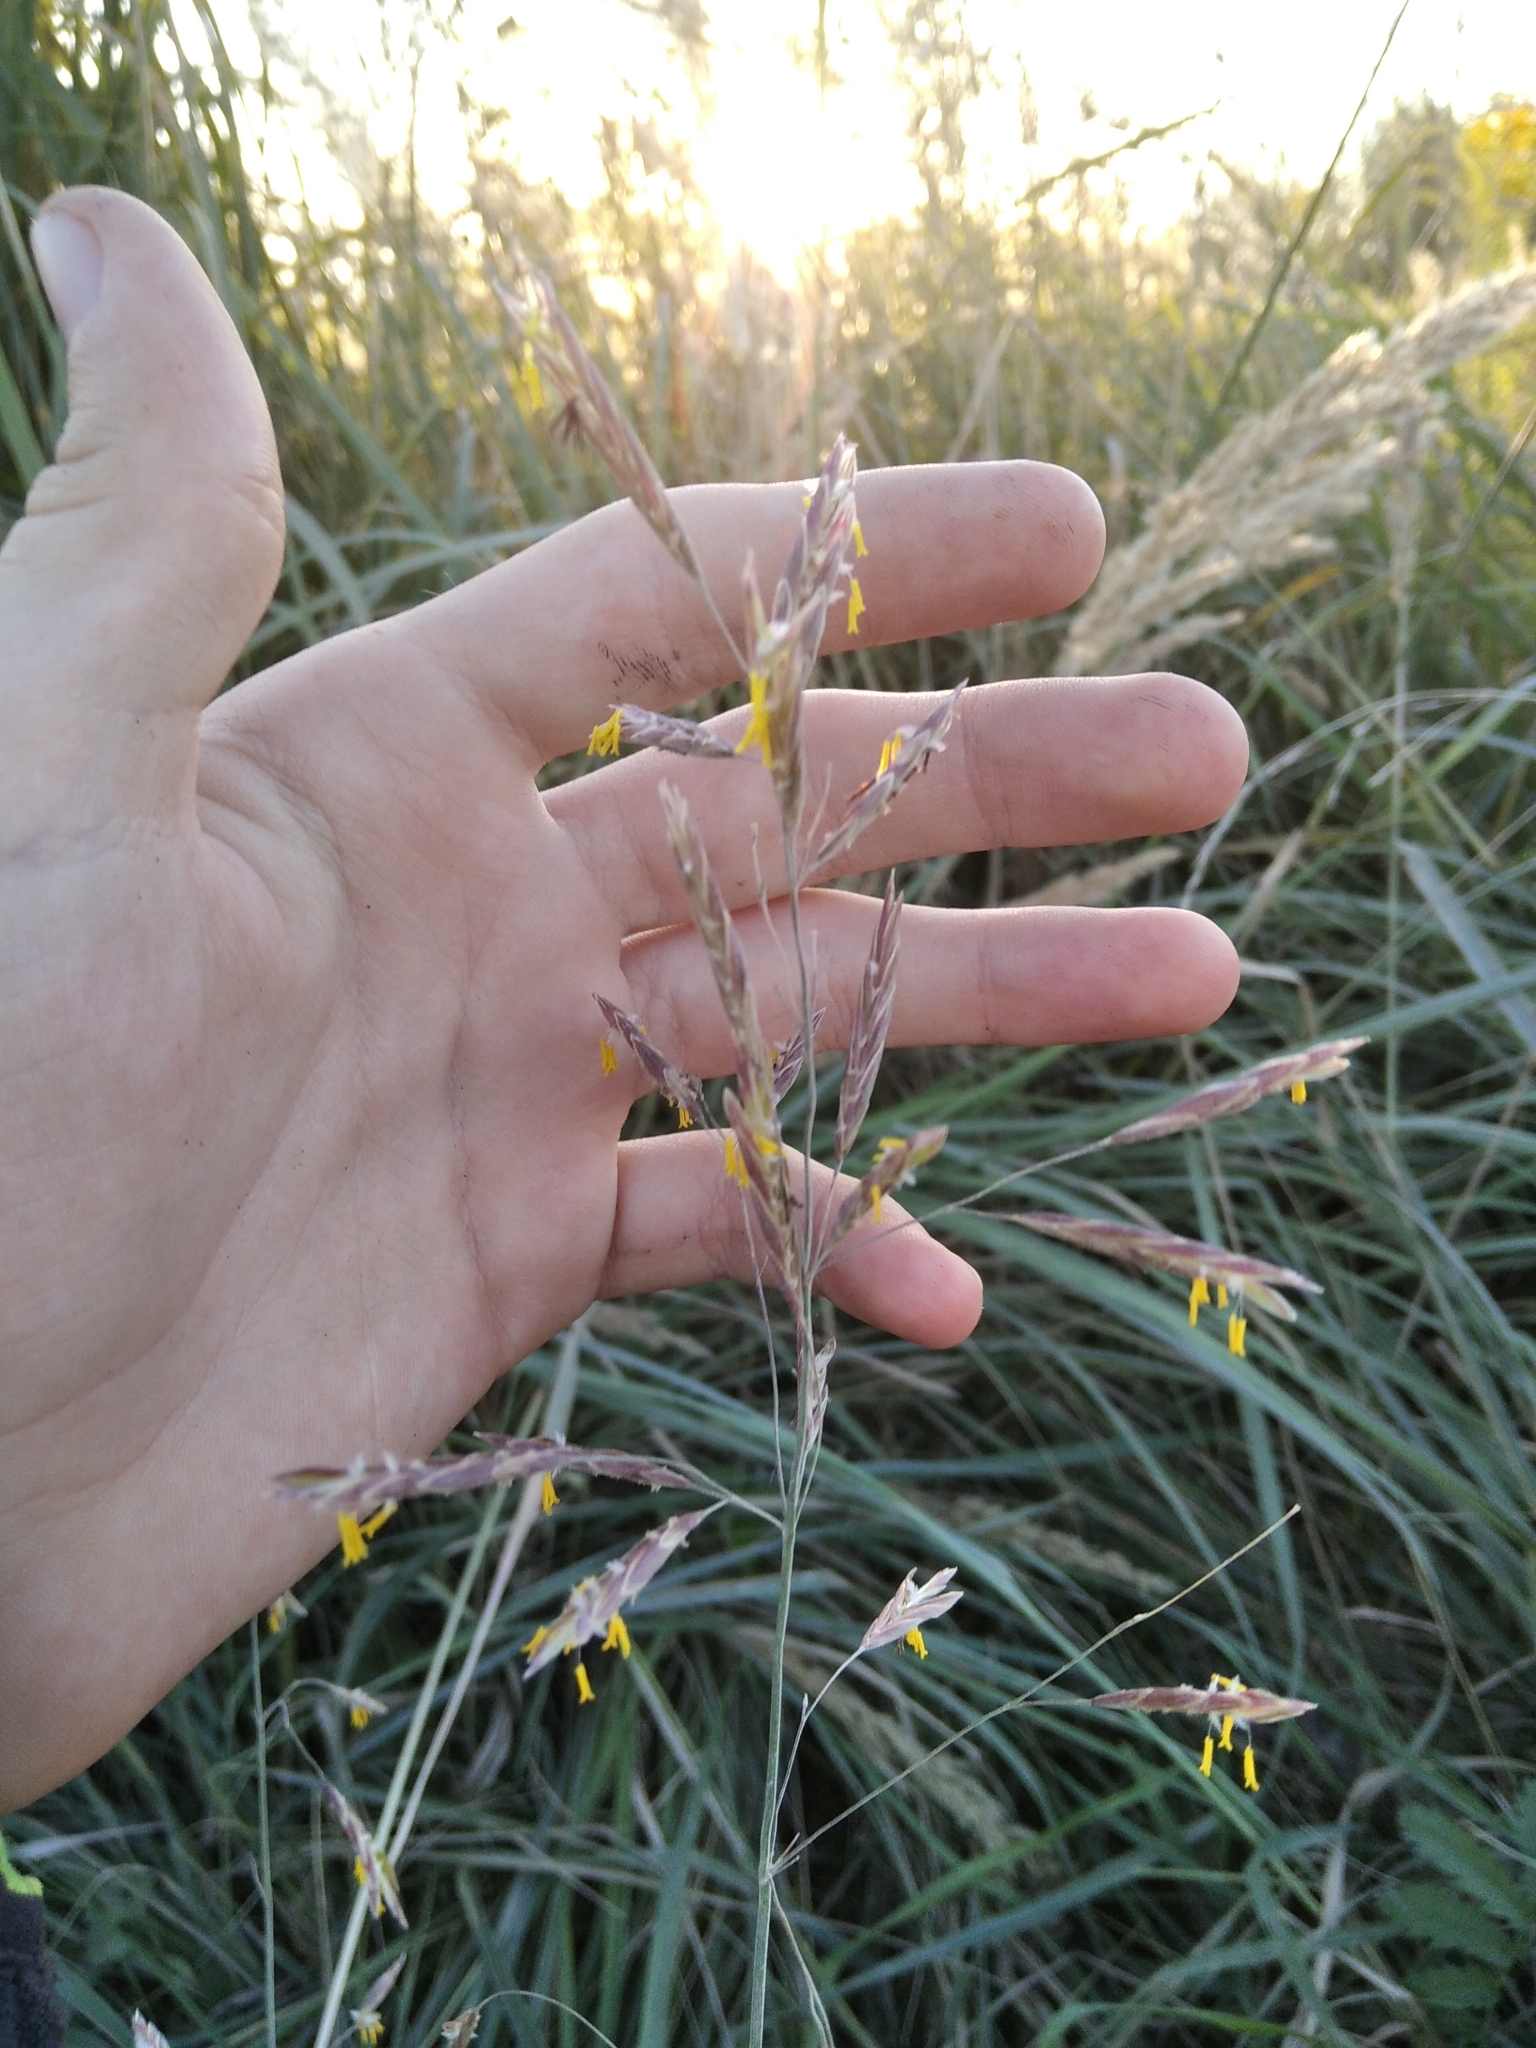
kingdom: Plantae
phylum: Tracheophyta
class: Liliopsida
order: Poales
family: Poaceae
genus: Bromus
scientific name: Bromus inermis
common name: Smooth brome
